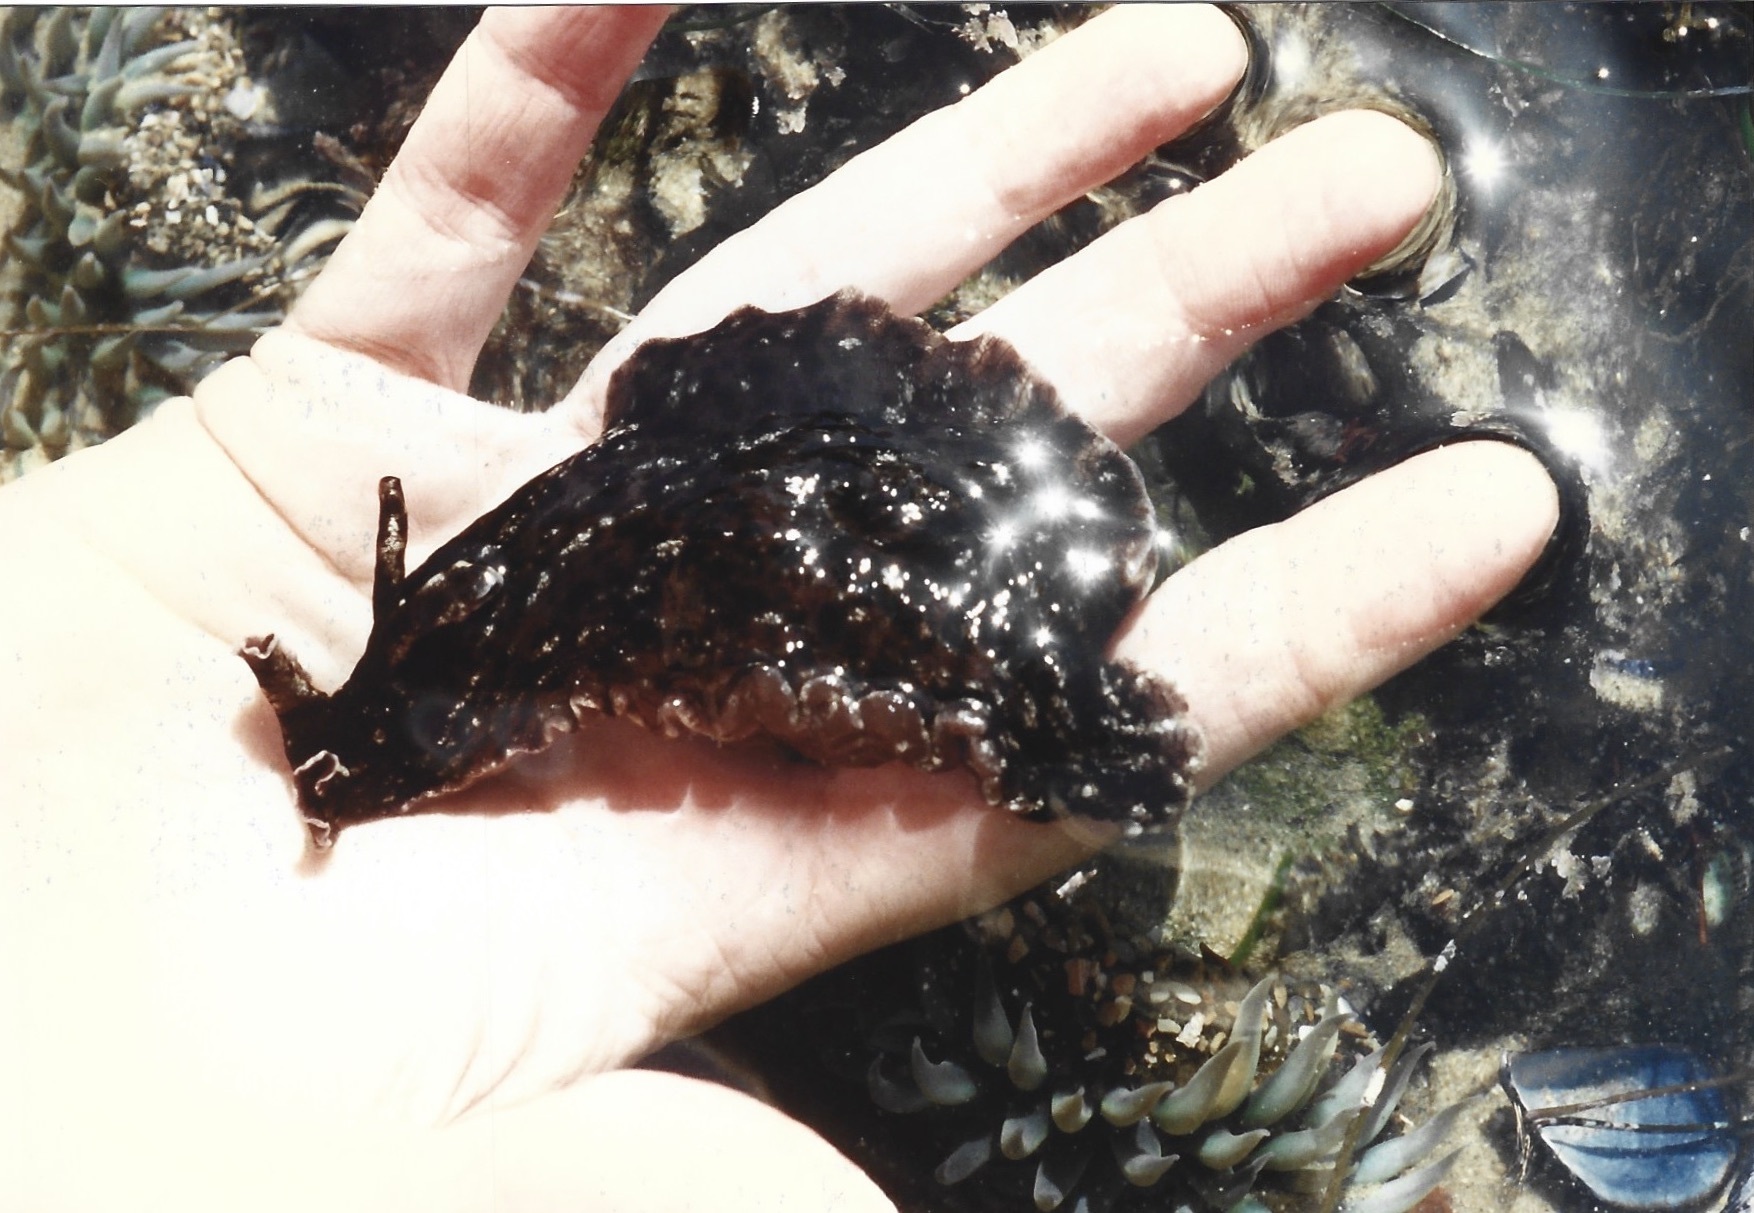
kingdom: Animalia
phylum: Mollusca
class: Gastropoda
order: Aplysiida
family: Aplysiidae
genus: Aplysia
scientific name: Aplysia californica
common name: California seahare
